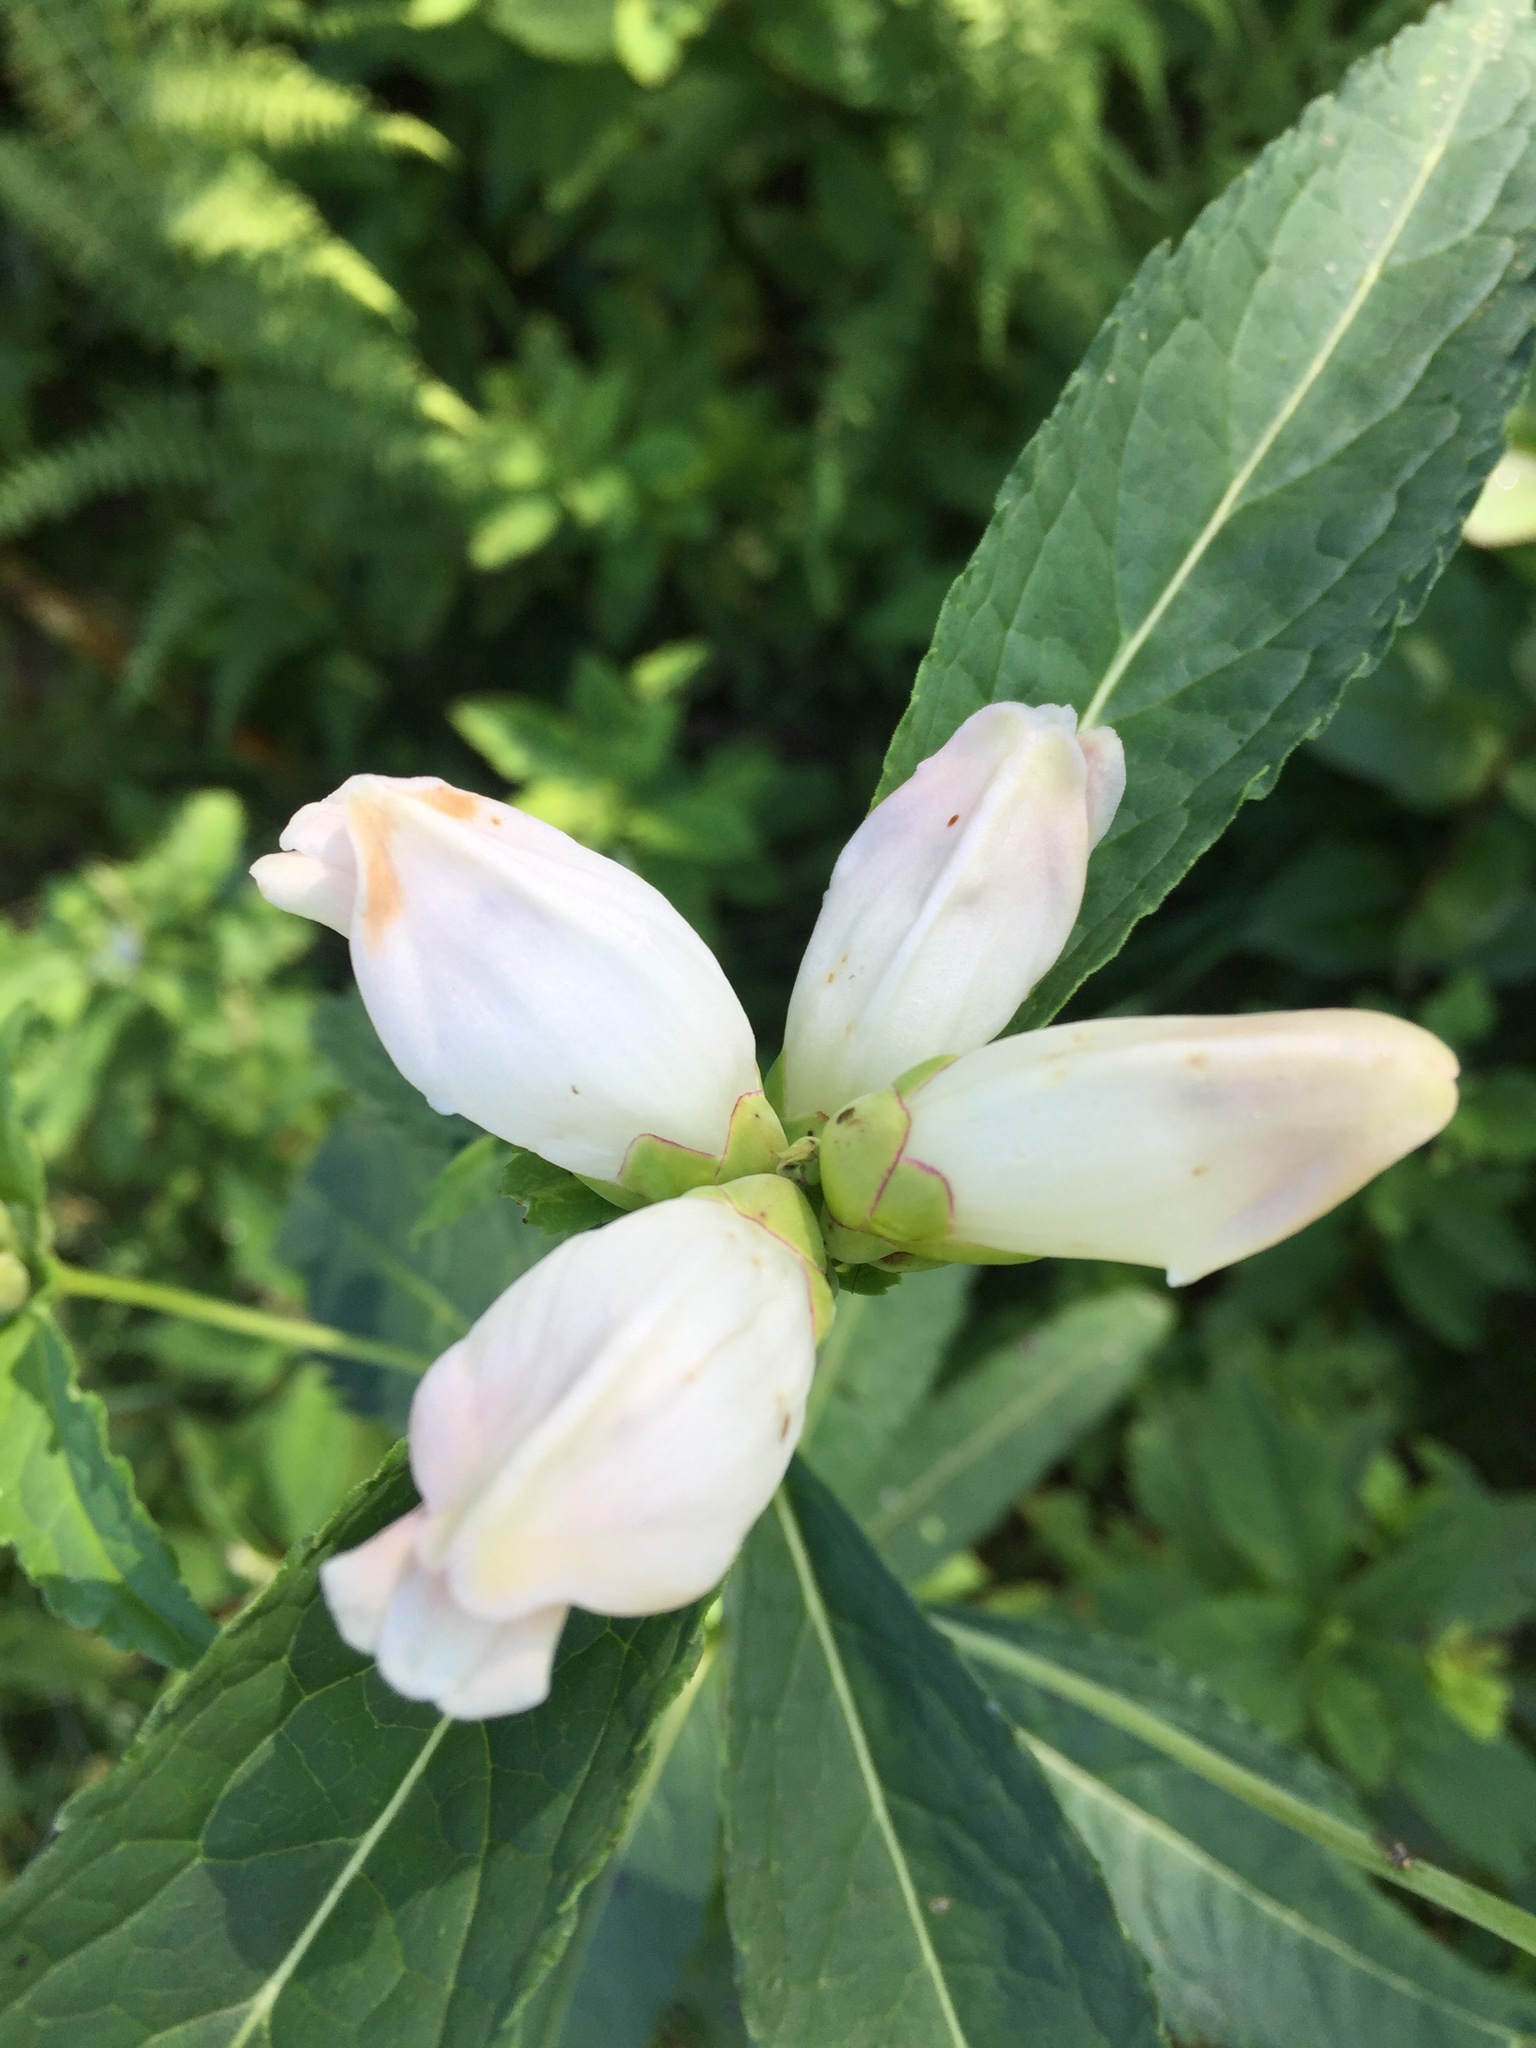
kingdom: Plantae
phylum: Tracheophyta
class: Magnoliopsida
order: Lamiales
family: Plantaginaceae
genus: Chelone
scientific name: Chelone glabra
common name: Snakehead
